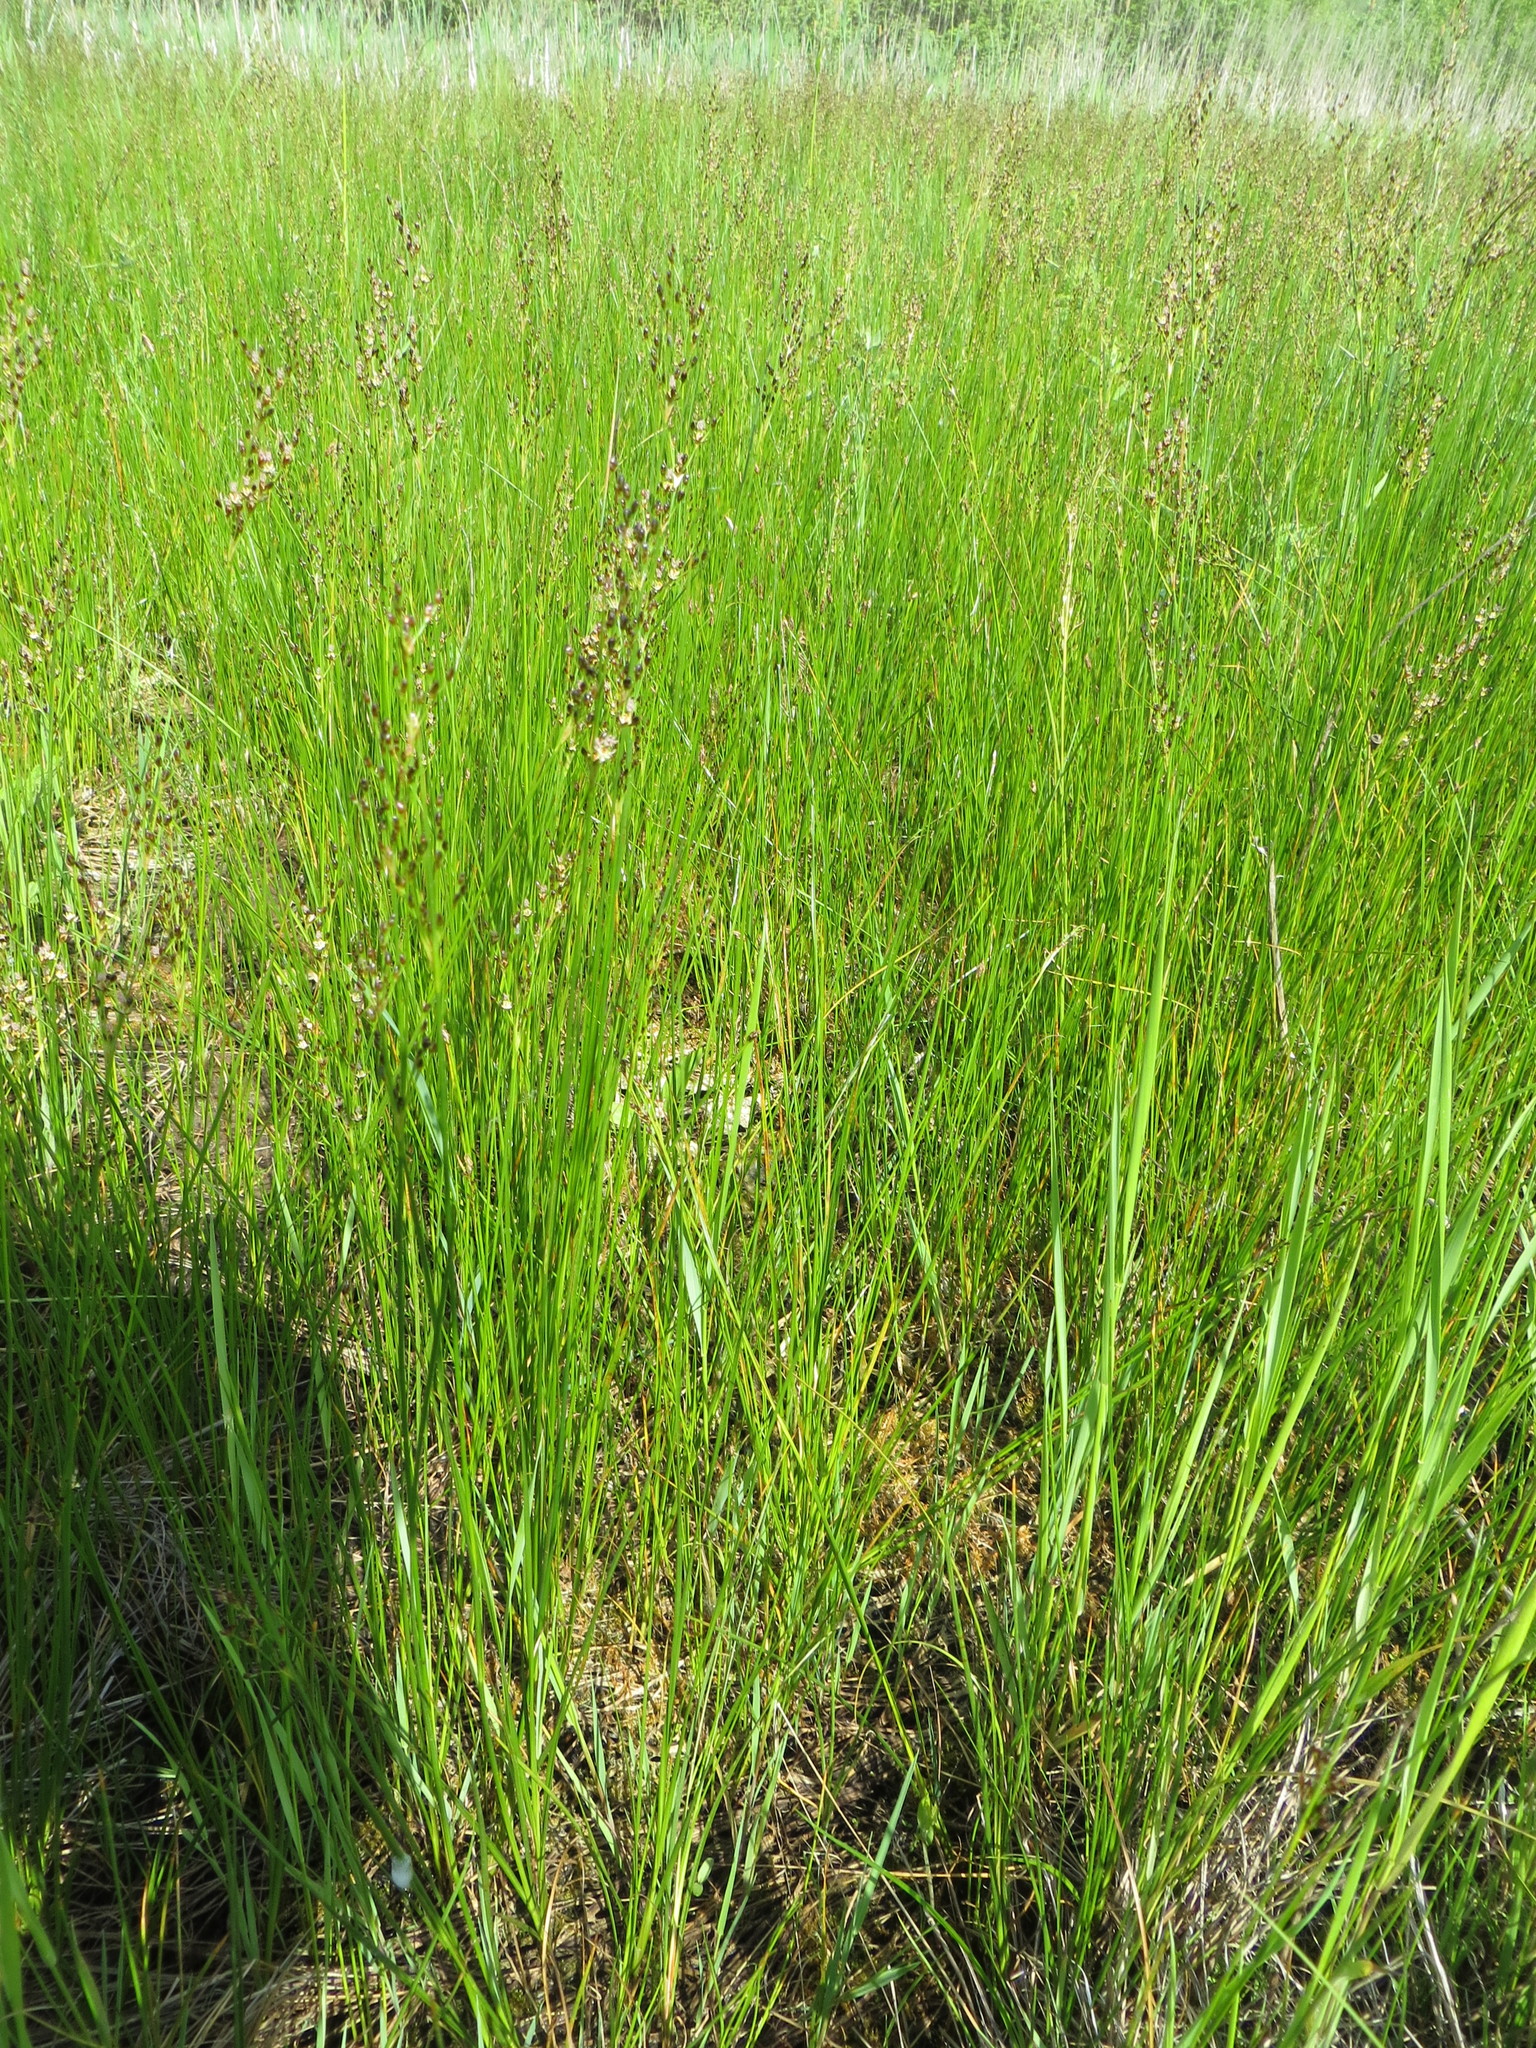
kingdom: Plantae
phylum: Tracheophyta
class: Liliopsida
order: Poales
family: Juncaceae
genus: Juncus
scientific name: Juncus gerardi
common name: Saltmarsh rush
